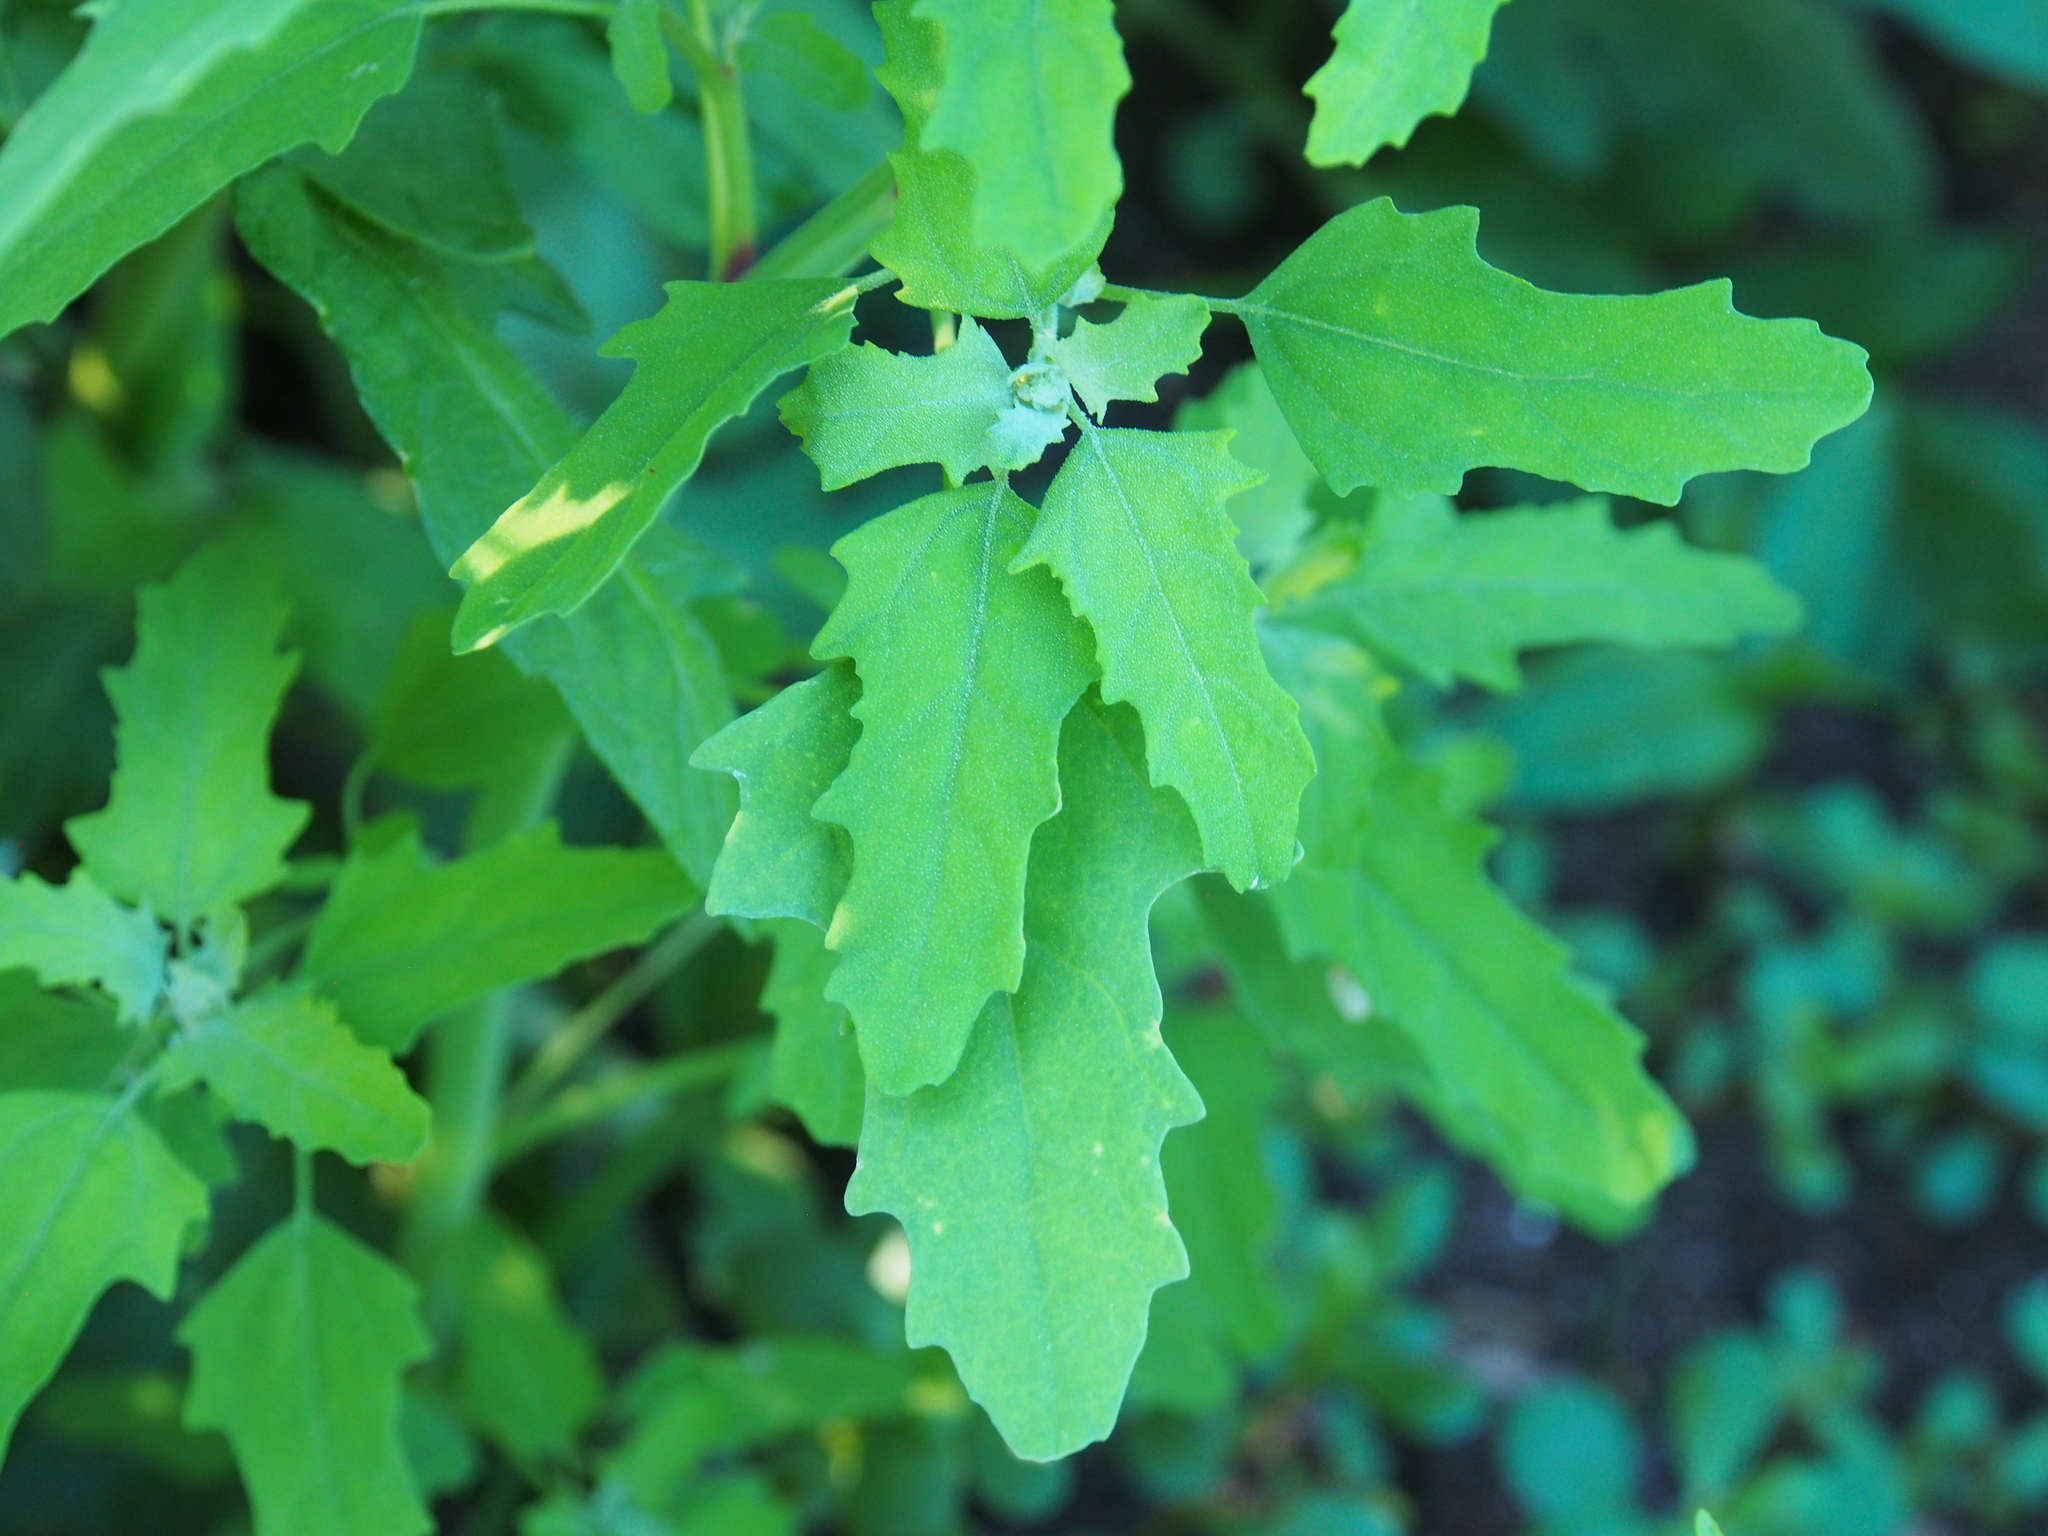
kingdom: Plantae
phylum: Tracheophyta
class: Magnoliopsida
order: Caryophyllales
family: Amaranthaceae
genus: Chenopodium
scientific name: Chenopodium ficifolium
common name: Fig-leaved goosefoot
